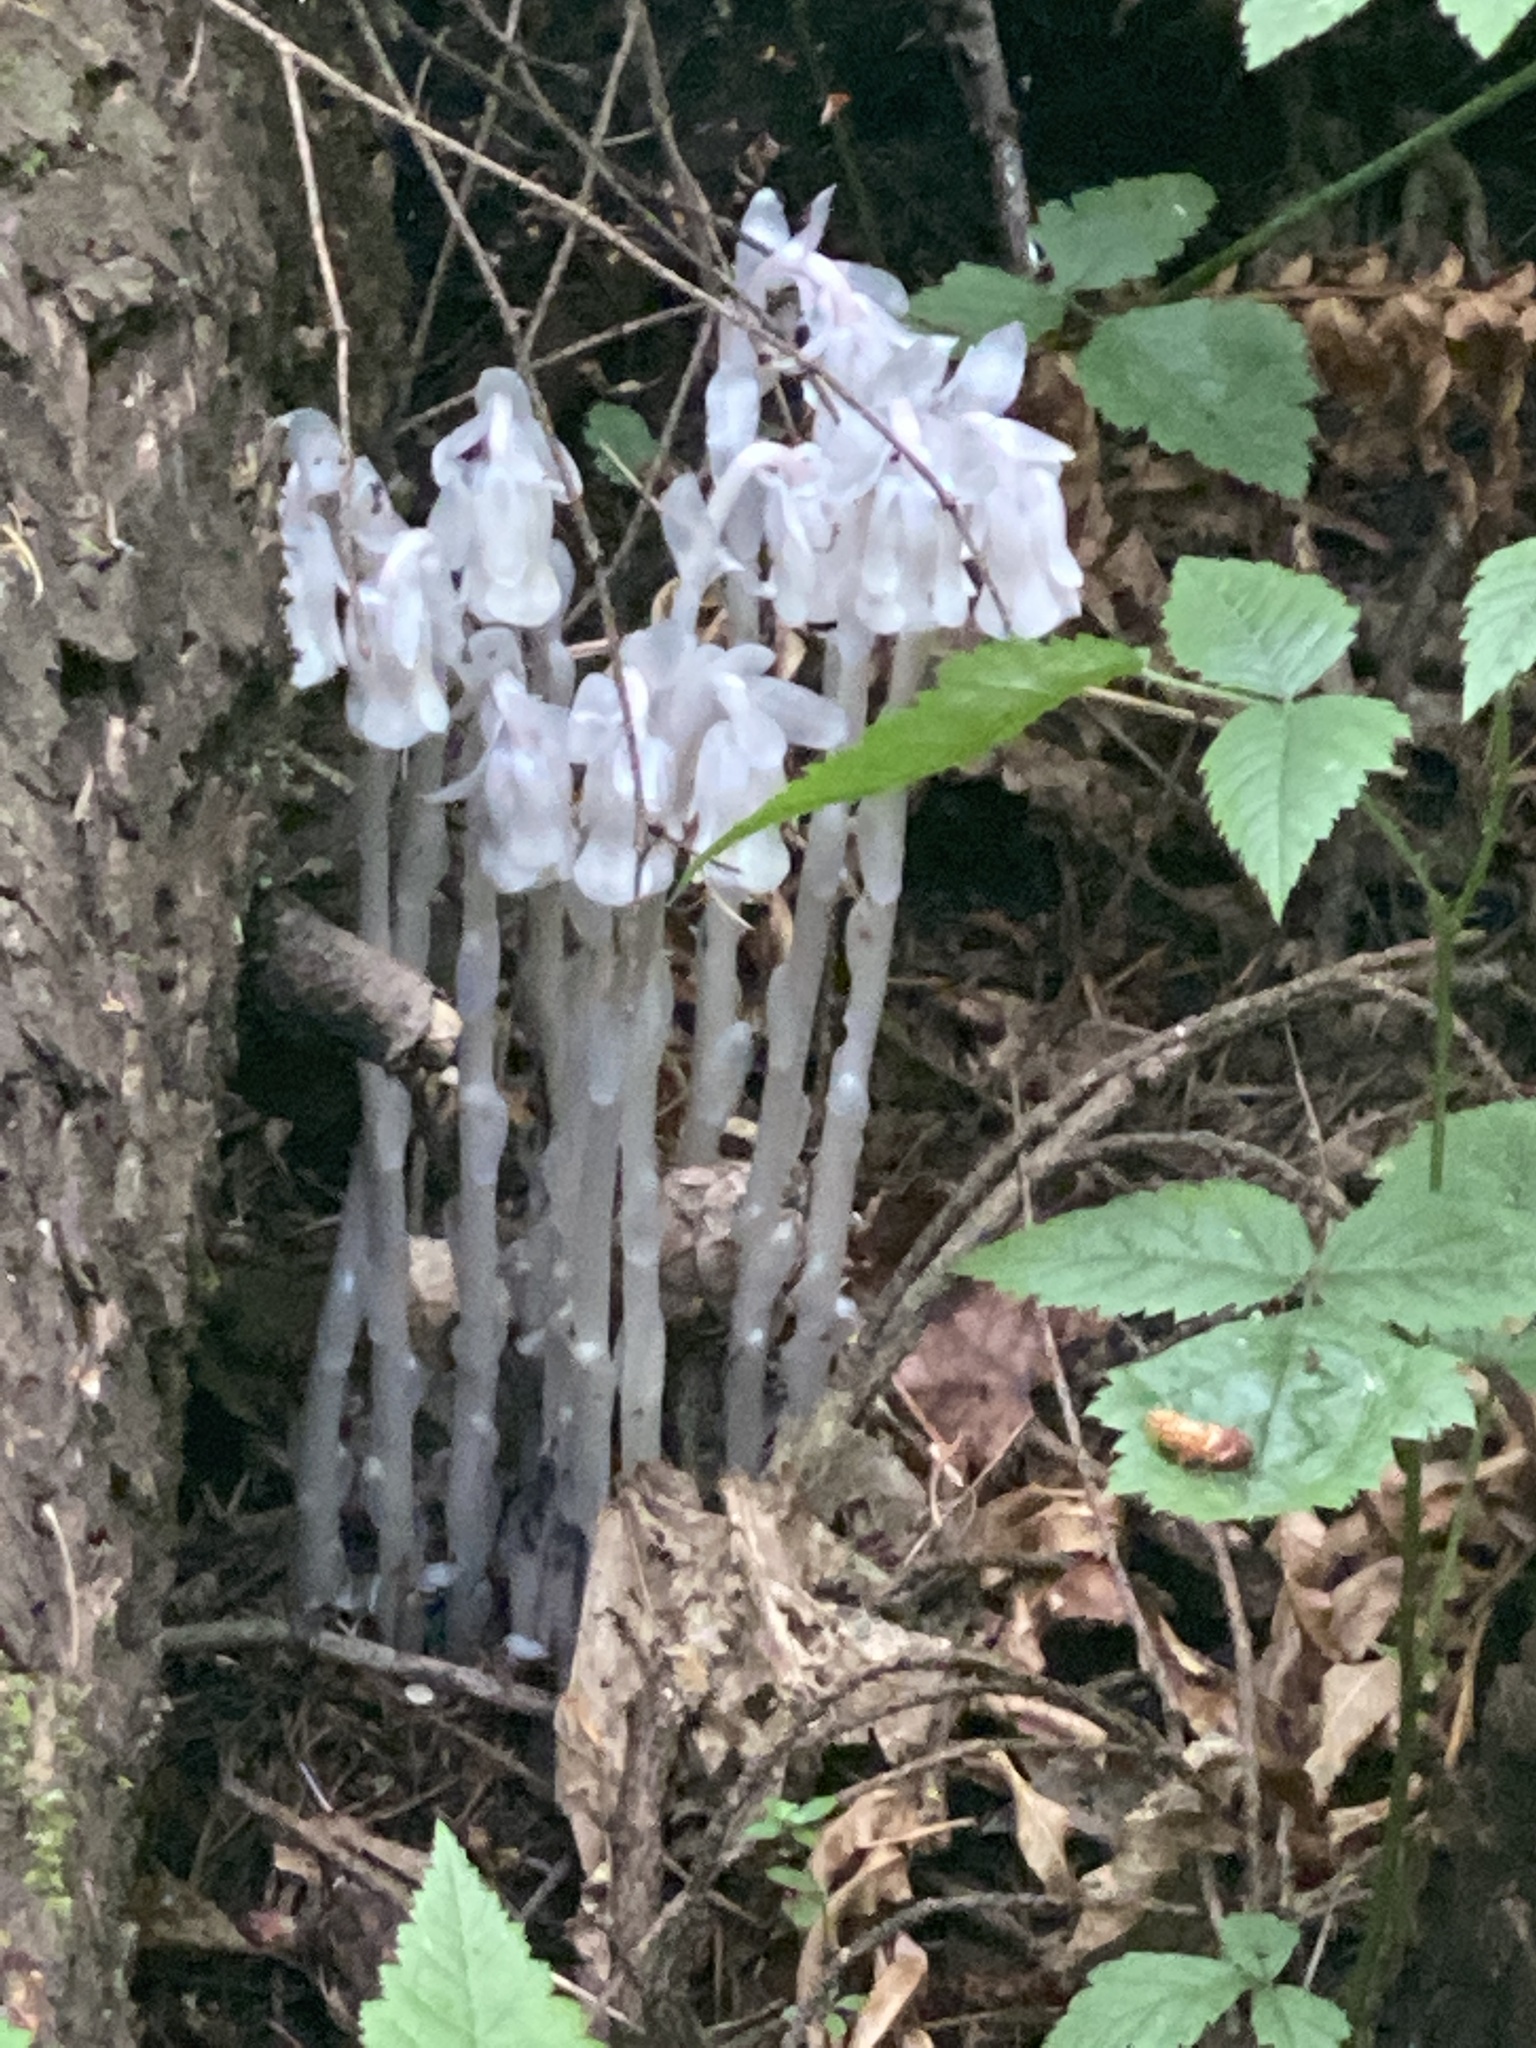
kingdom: Plantae
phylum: Tracheophyta
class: Magnoliopsida
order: Ericales
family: Ericaceae
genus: Monotropa
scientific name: Monotropa uniflora
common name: Convulsion root
